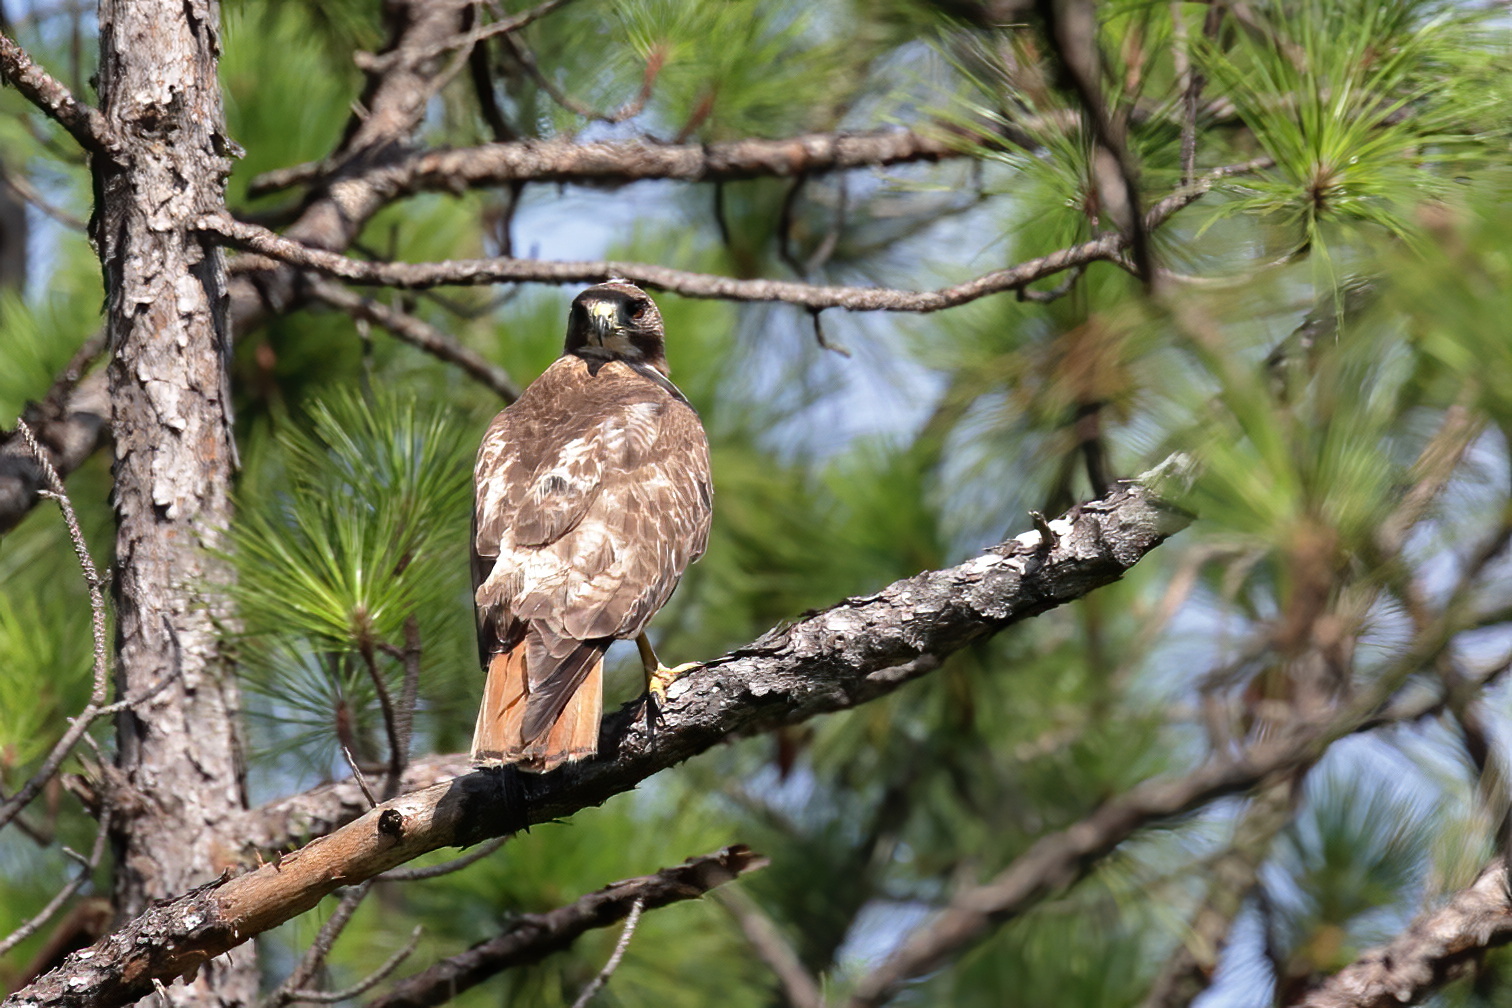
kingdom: Animalia
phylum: Chordata
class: Aves
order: Accipitriformes
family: Accipitridae
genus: Buteo
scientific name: Buteo jamaicensis
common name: Red-tailed hawk
